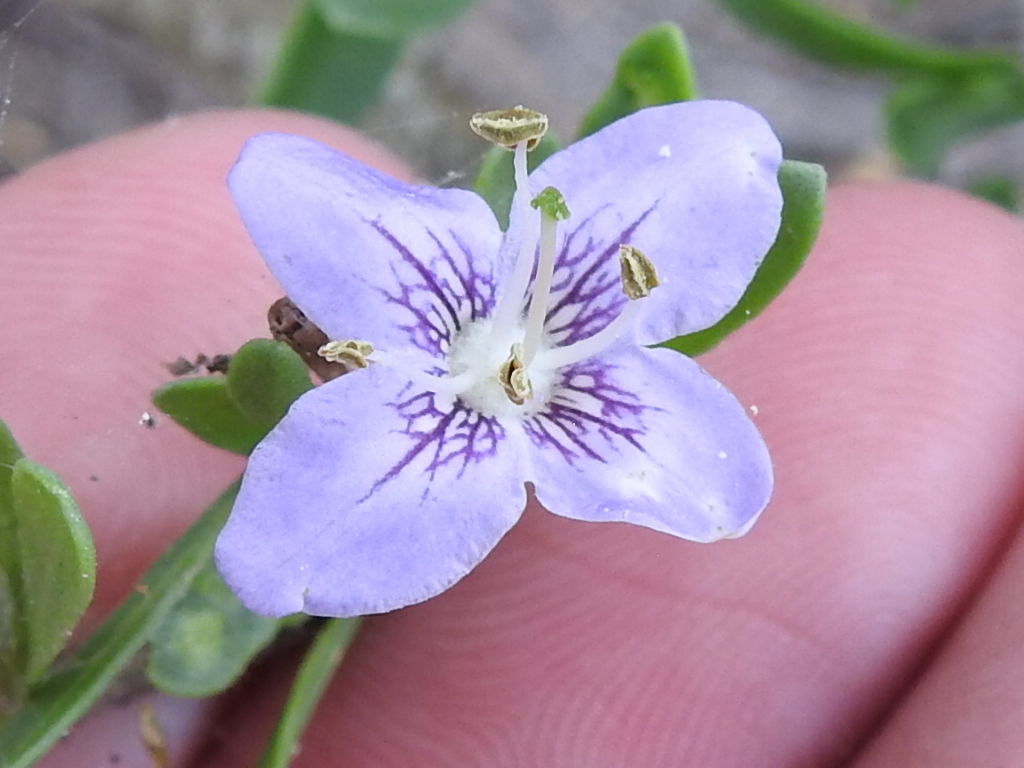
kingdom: Plantae
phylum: Tracheophyta
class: Magnoliopsida
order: Solanales
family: Solanaceae
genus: Lycium
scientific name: Lycium carolinianum
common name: Christmasberry
